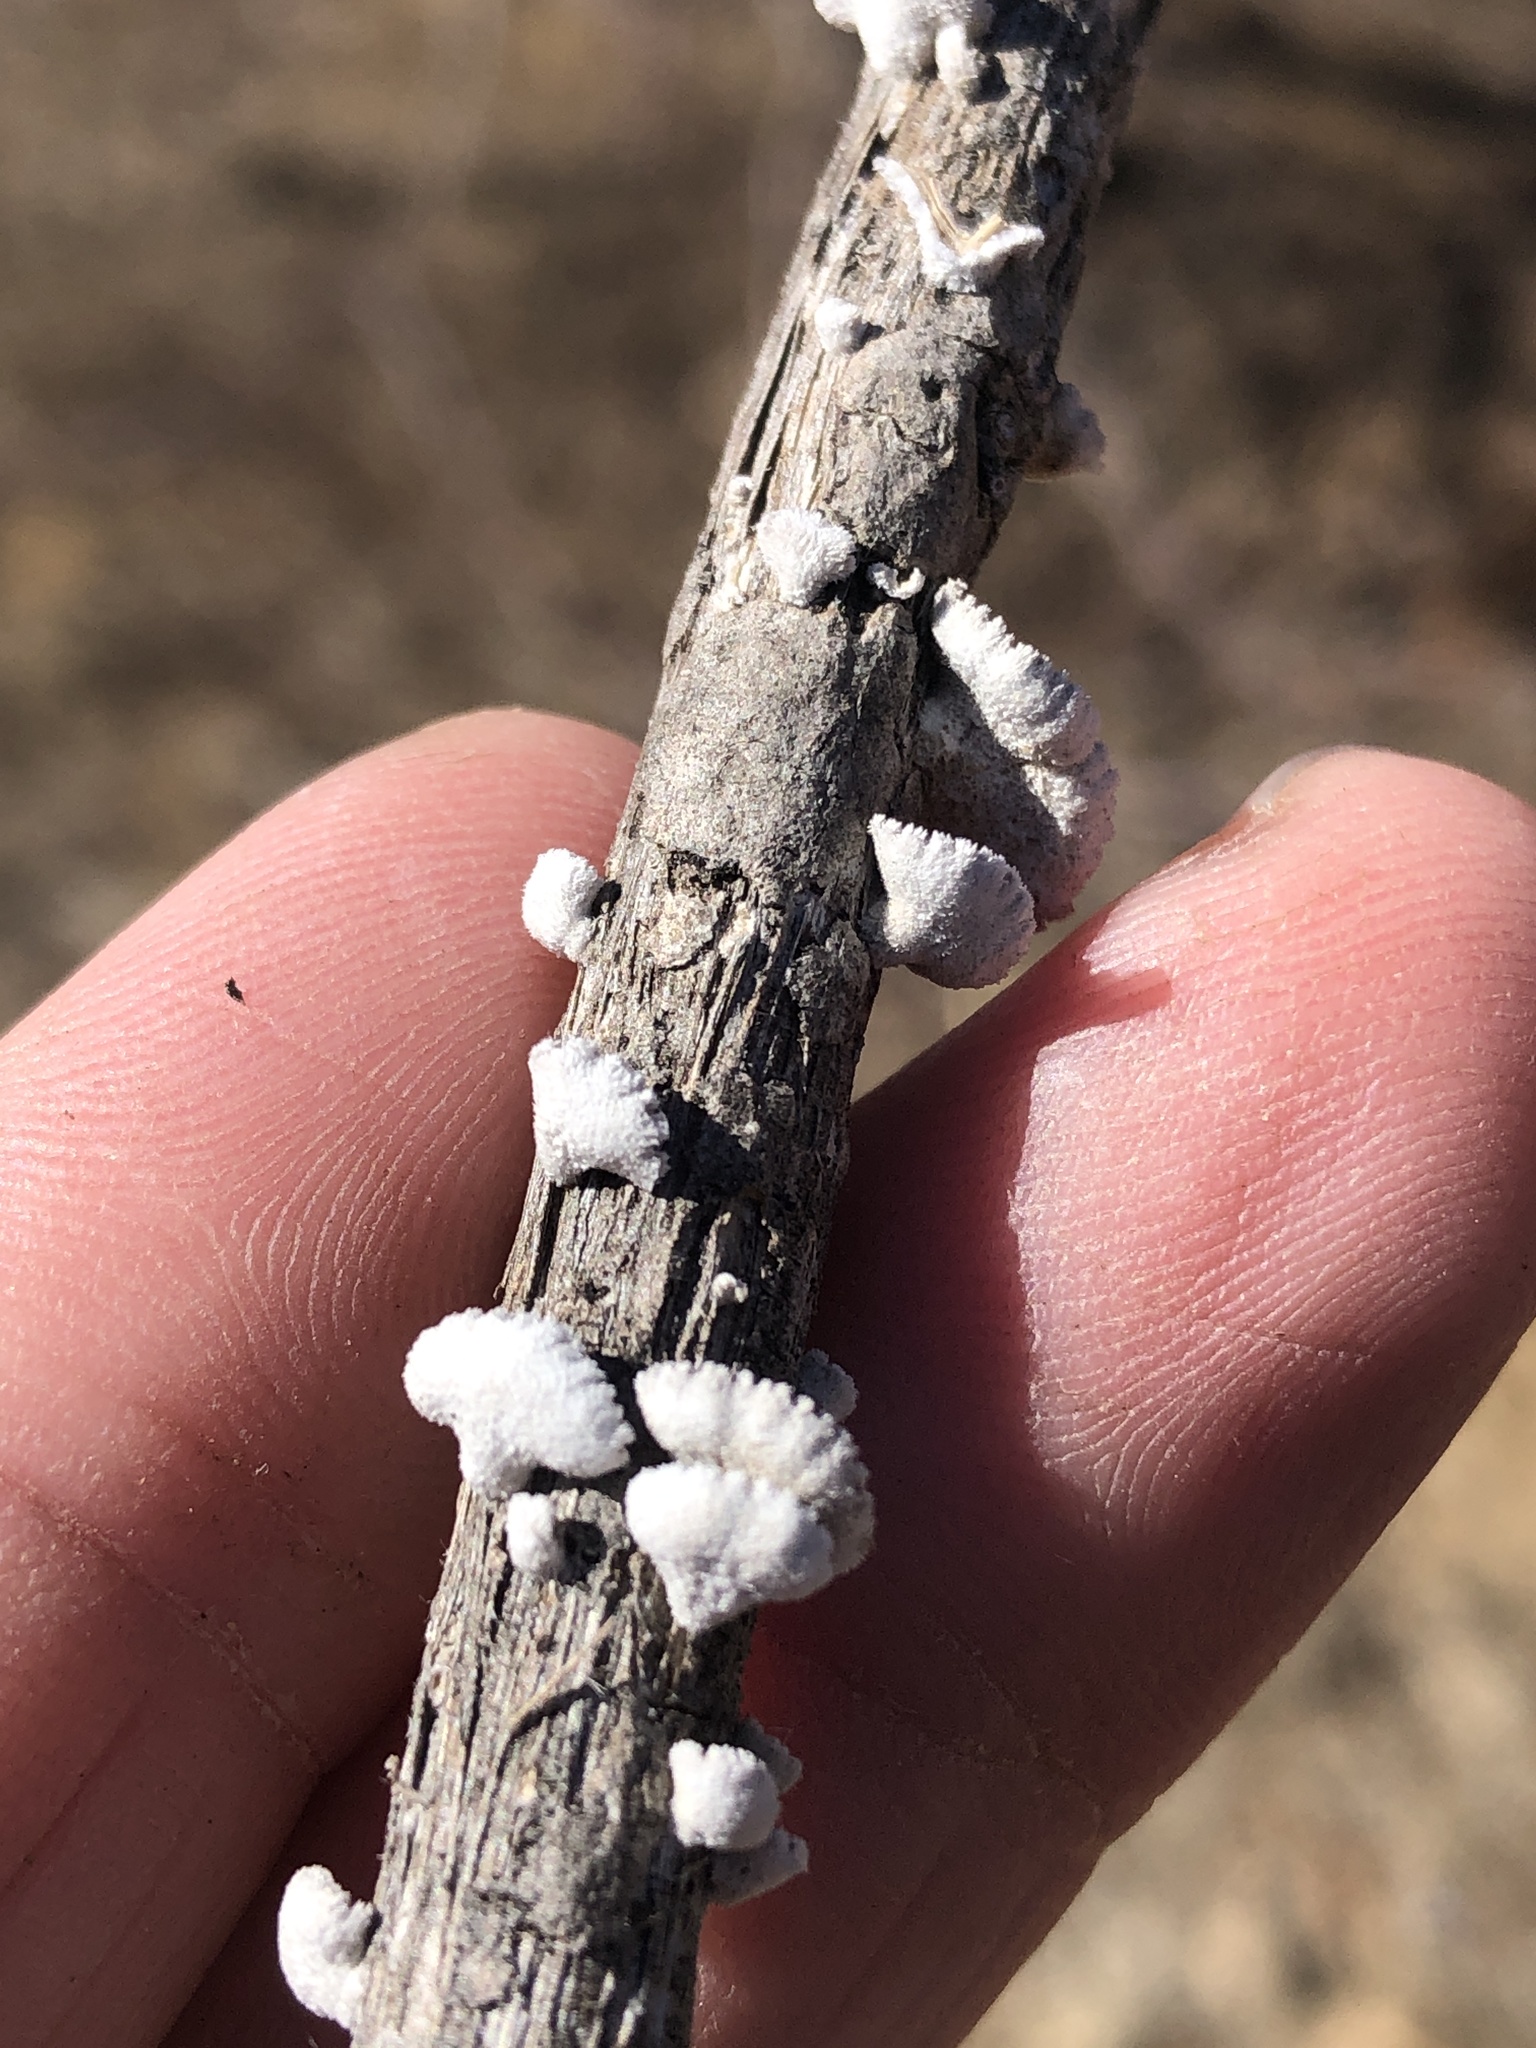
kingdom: Fungi
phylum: Basidiomycota
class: Agaricomycetes
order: Agaricales
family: Schizophyllaceae
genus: Schizophyllum
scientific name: Schizophyllum commune
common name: Common porecrust
